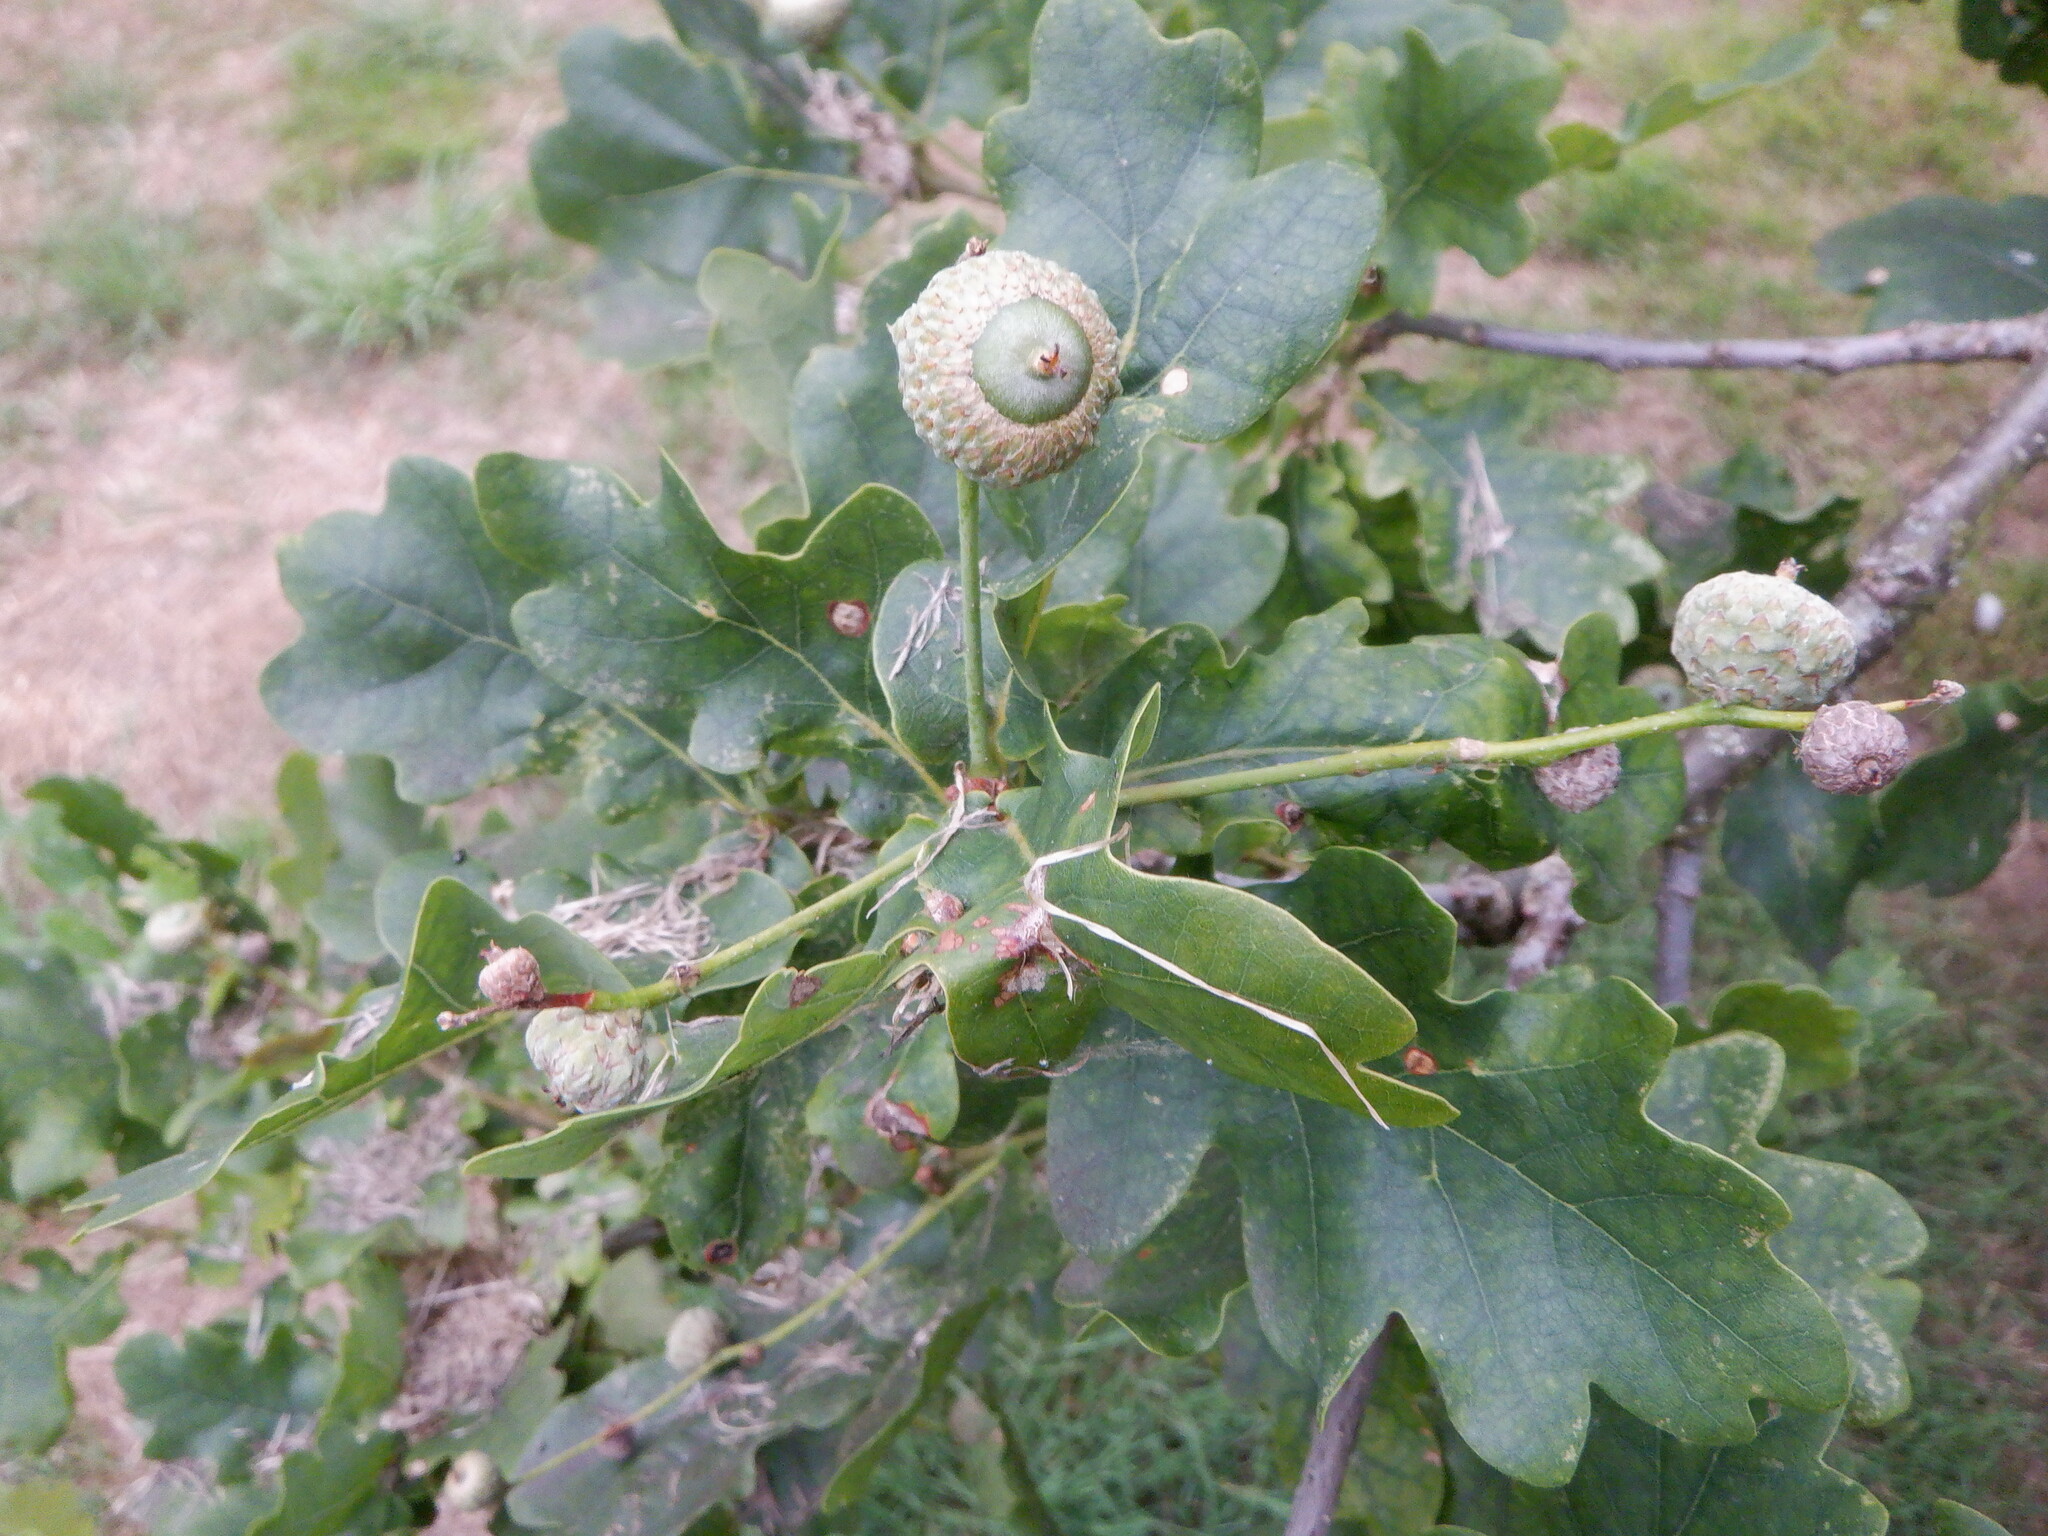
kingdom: Plantae
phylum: Tracheophyta
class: Magnoliopsida
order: Fagales
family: Fagaceae
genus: Quercus
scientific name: Quercus robur
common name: Pedunculate oak
